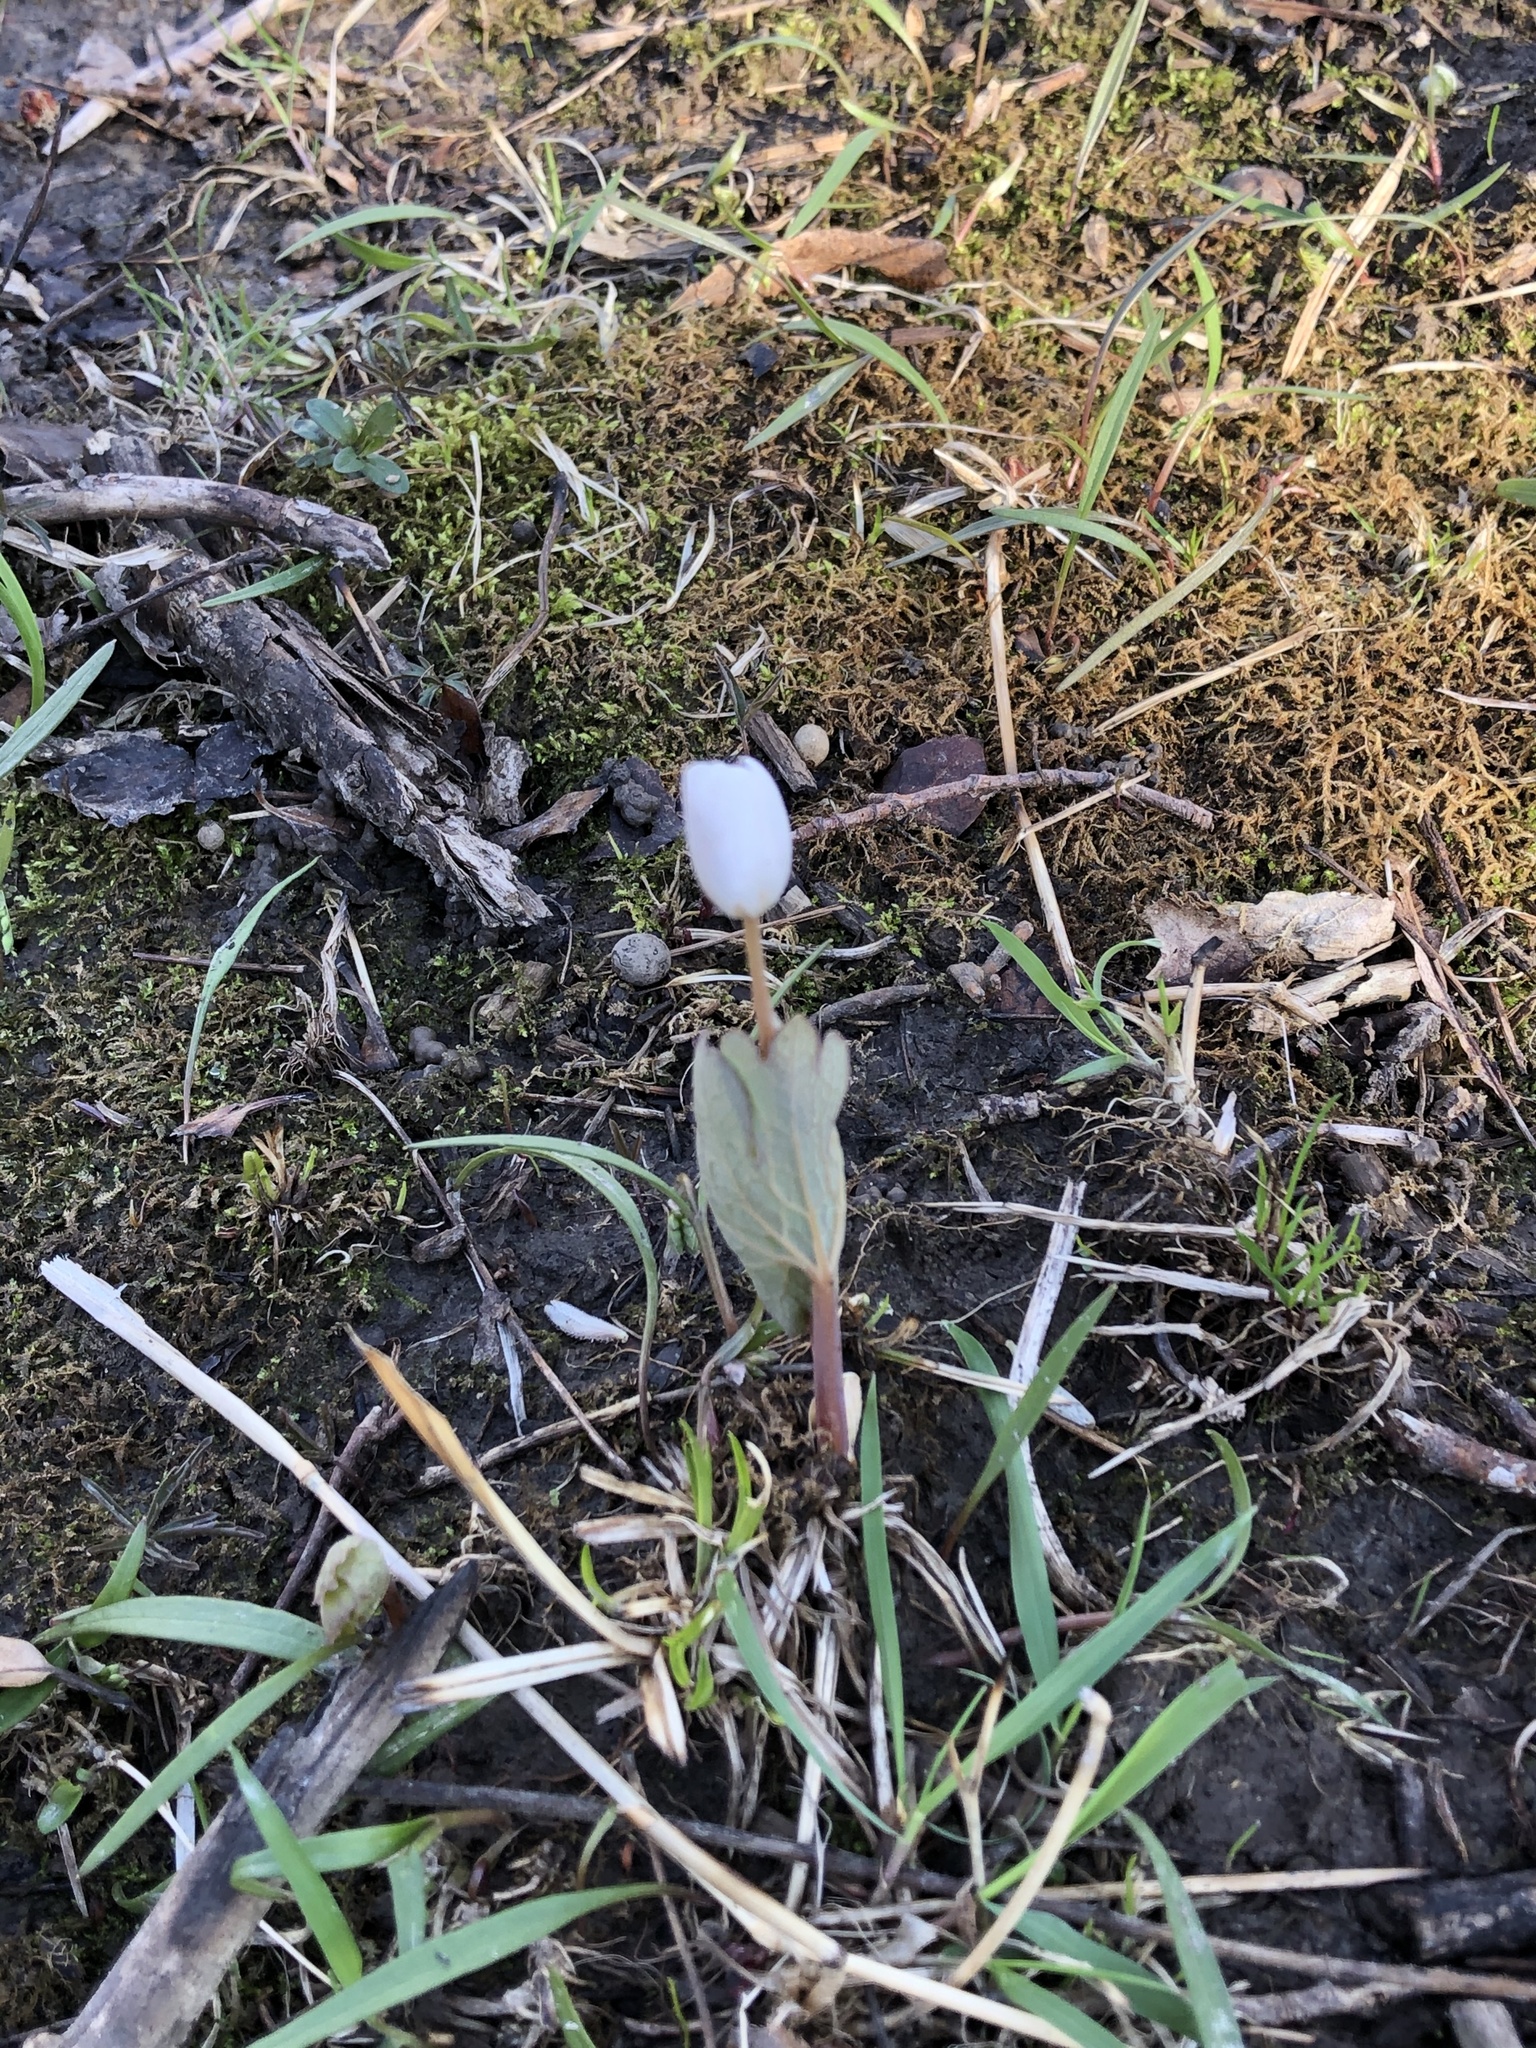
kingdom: Plantae
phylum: Tracheophyta
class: Magnoliopsida
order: Ranunculales
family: Papaveraceae
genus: Sanguinaria
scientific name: Sanguinaria canadensis
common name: Bloodroot
